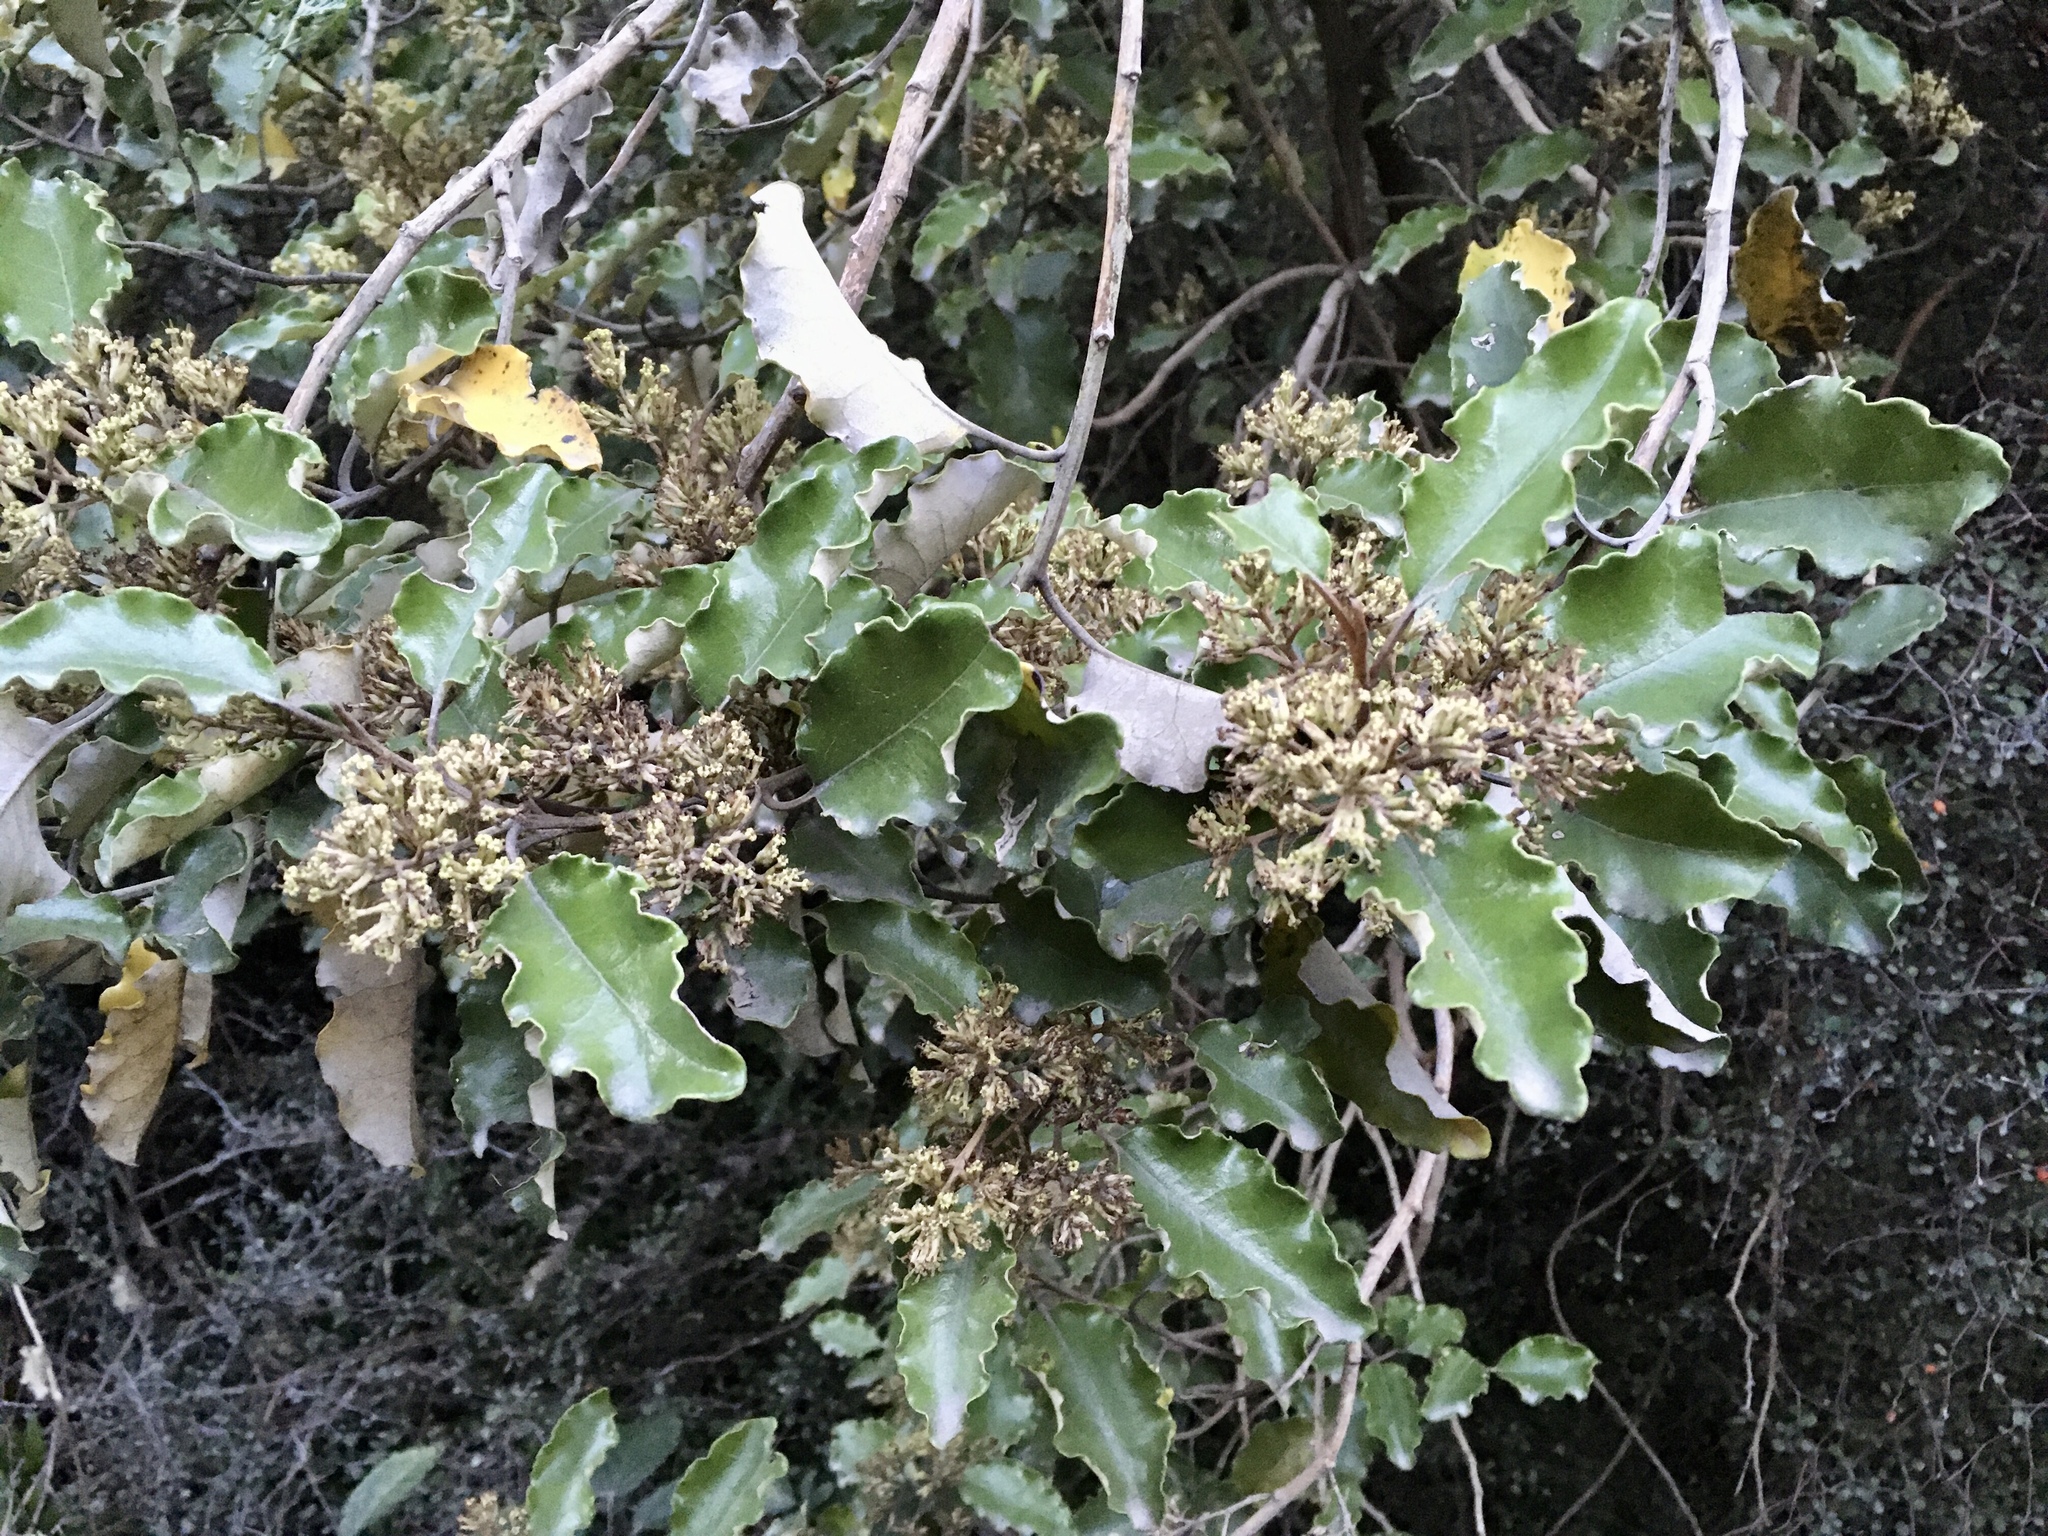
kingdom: Plantae
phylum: Tracheophyta
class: Magnoliopsida
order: Asterales
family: Asteraceae
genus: Olearia
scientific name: Olearia paniculata
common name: Akiraho
